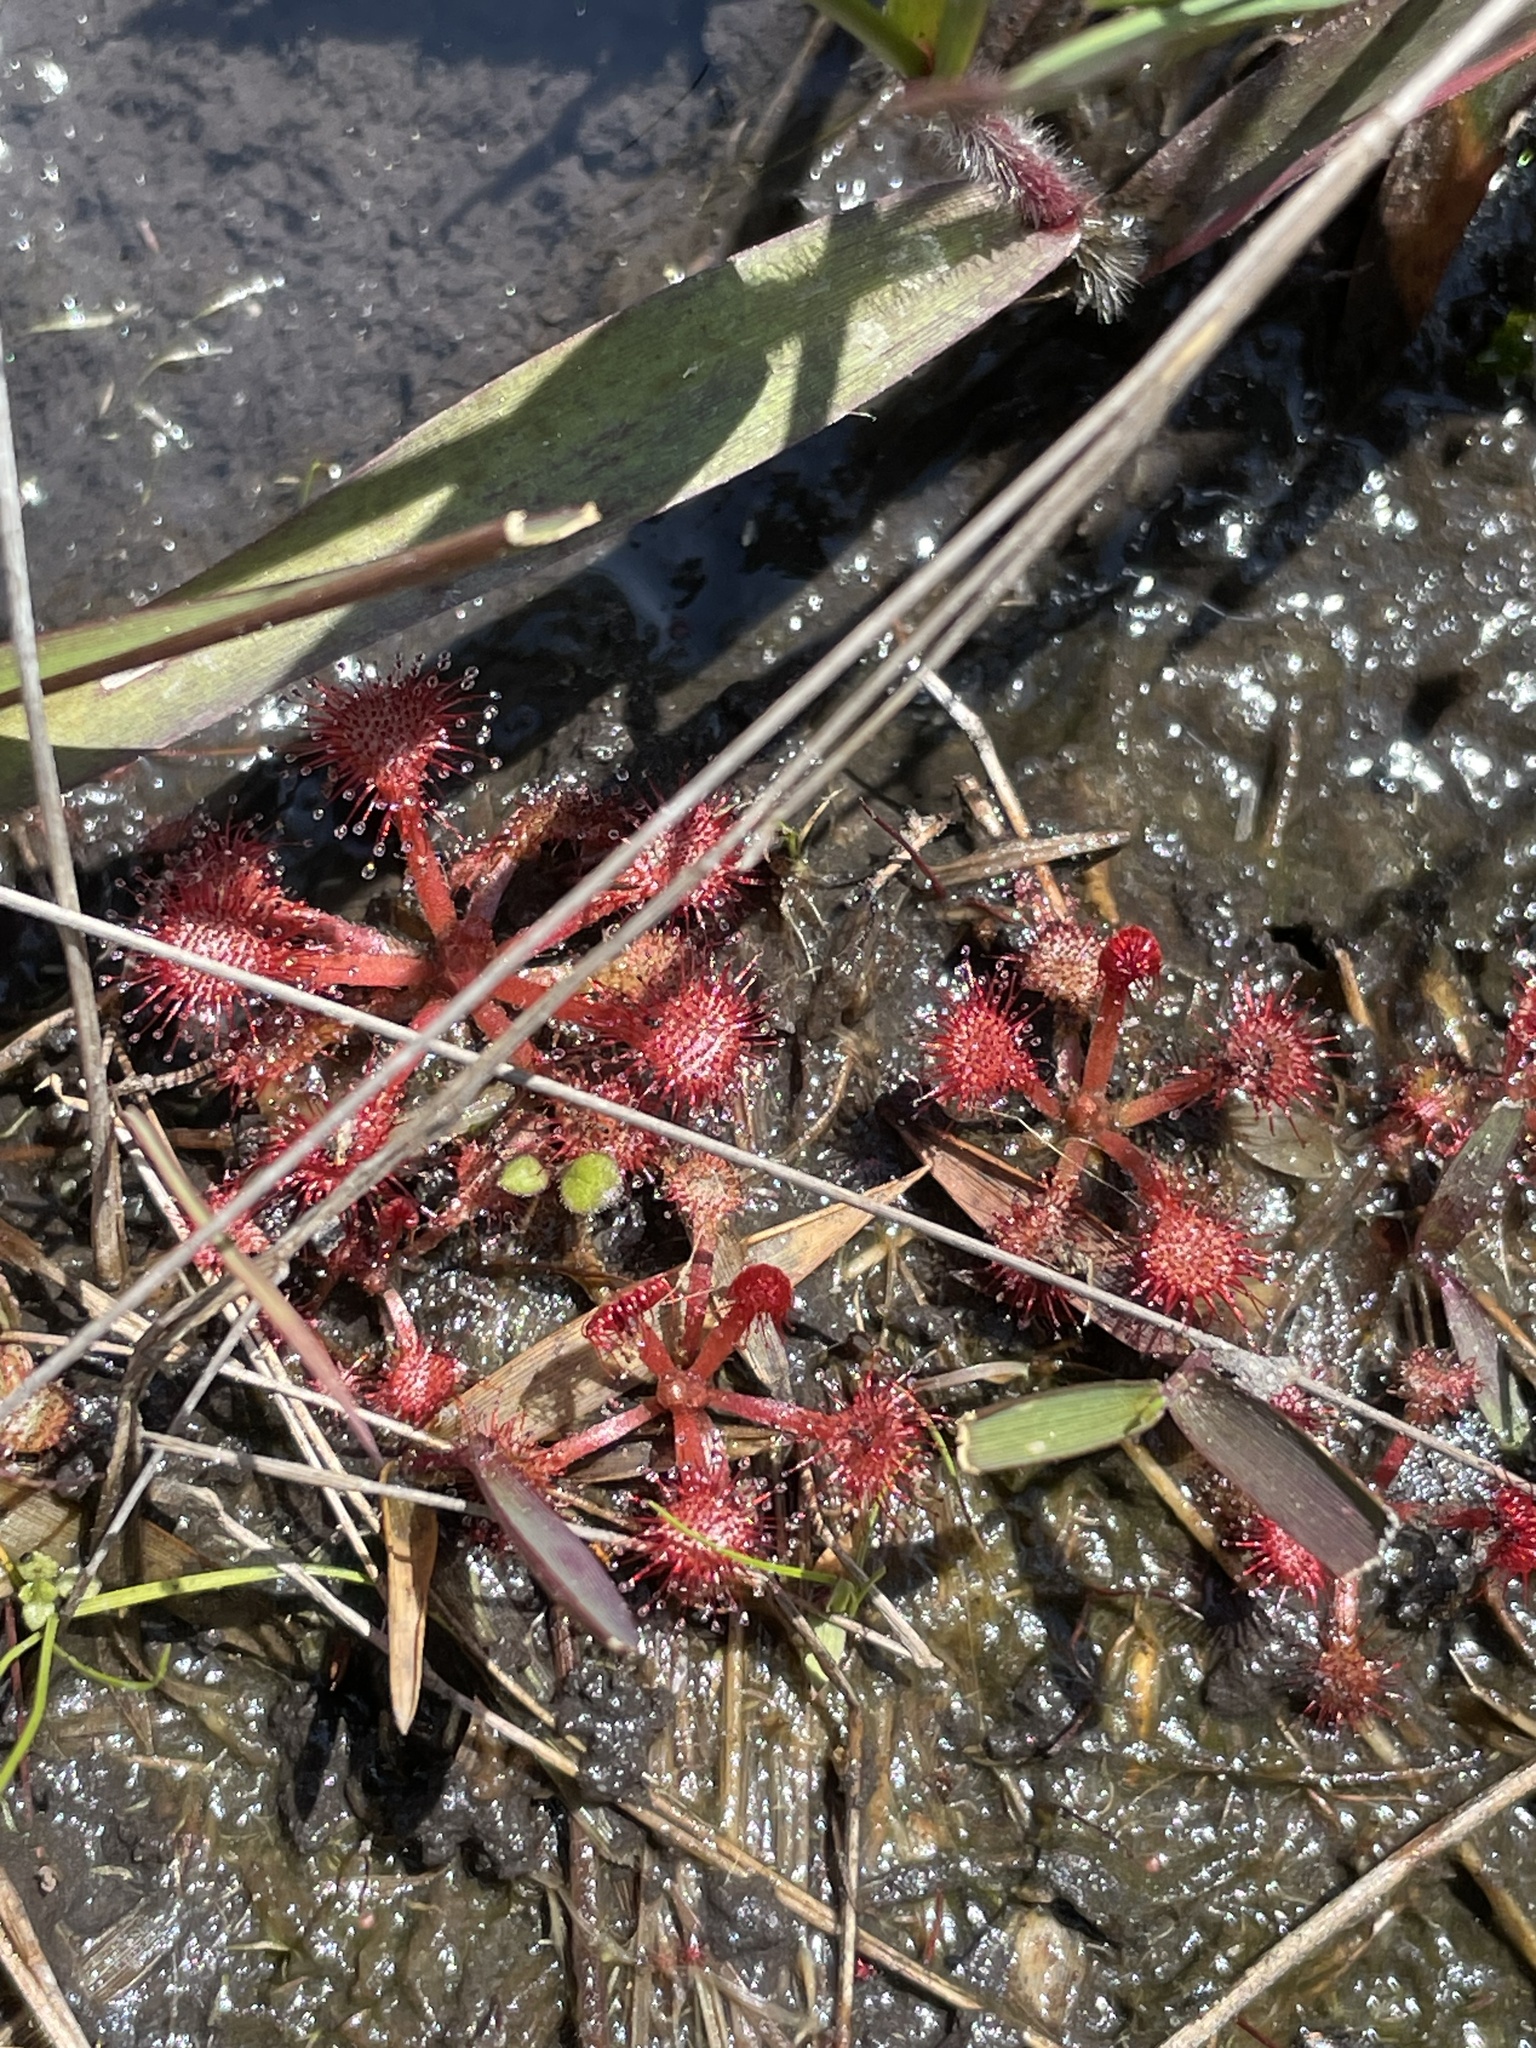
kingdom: Plantae
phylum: Tracheophyta
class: Magnoliopsida
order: Caryophyllales
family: Droseraceae
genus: Drosera
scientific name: Drosera capillaris
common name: Pink sundew
